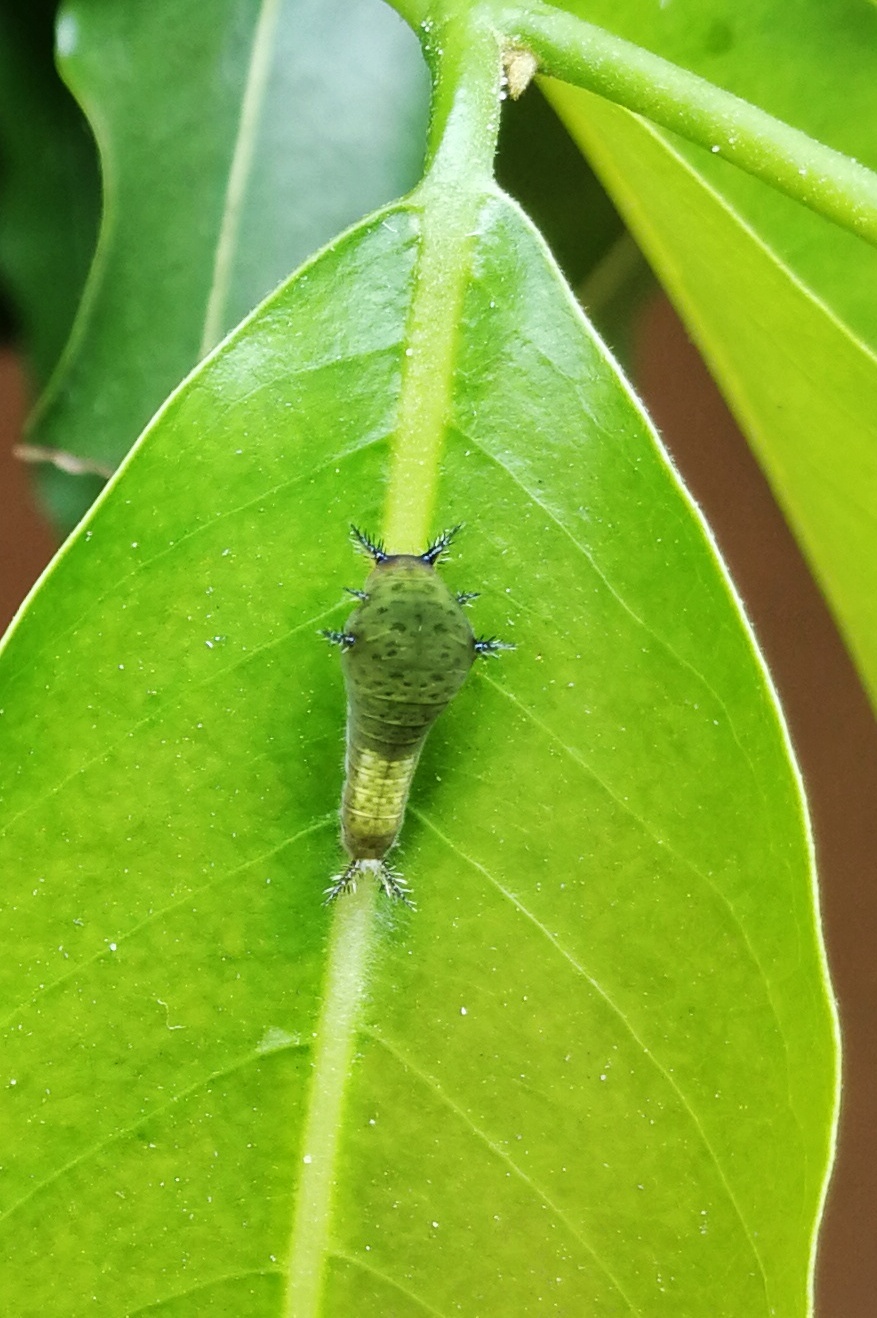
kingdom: Animalia
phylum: Arthropoda
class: Insecta
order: Lepidoptera
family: Papilionidae
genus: Graphium
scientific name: Graphium agamemnon
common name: Tailed jay
